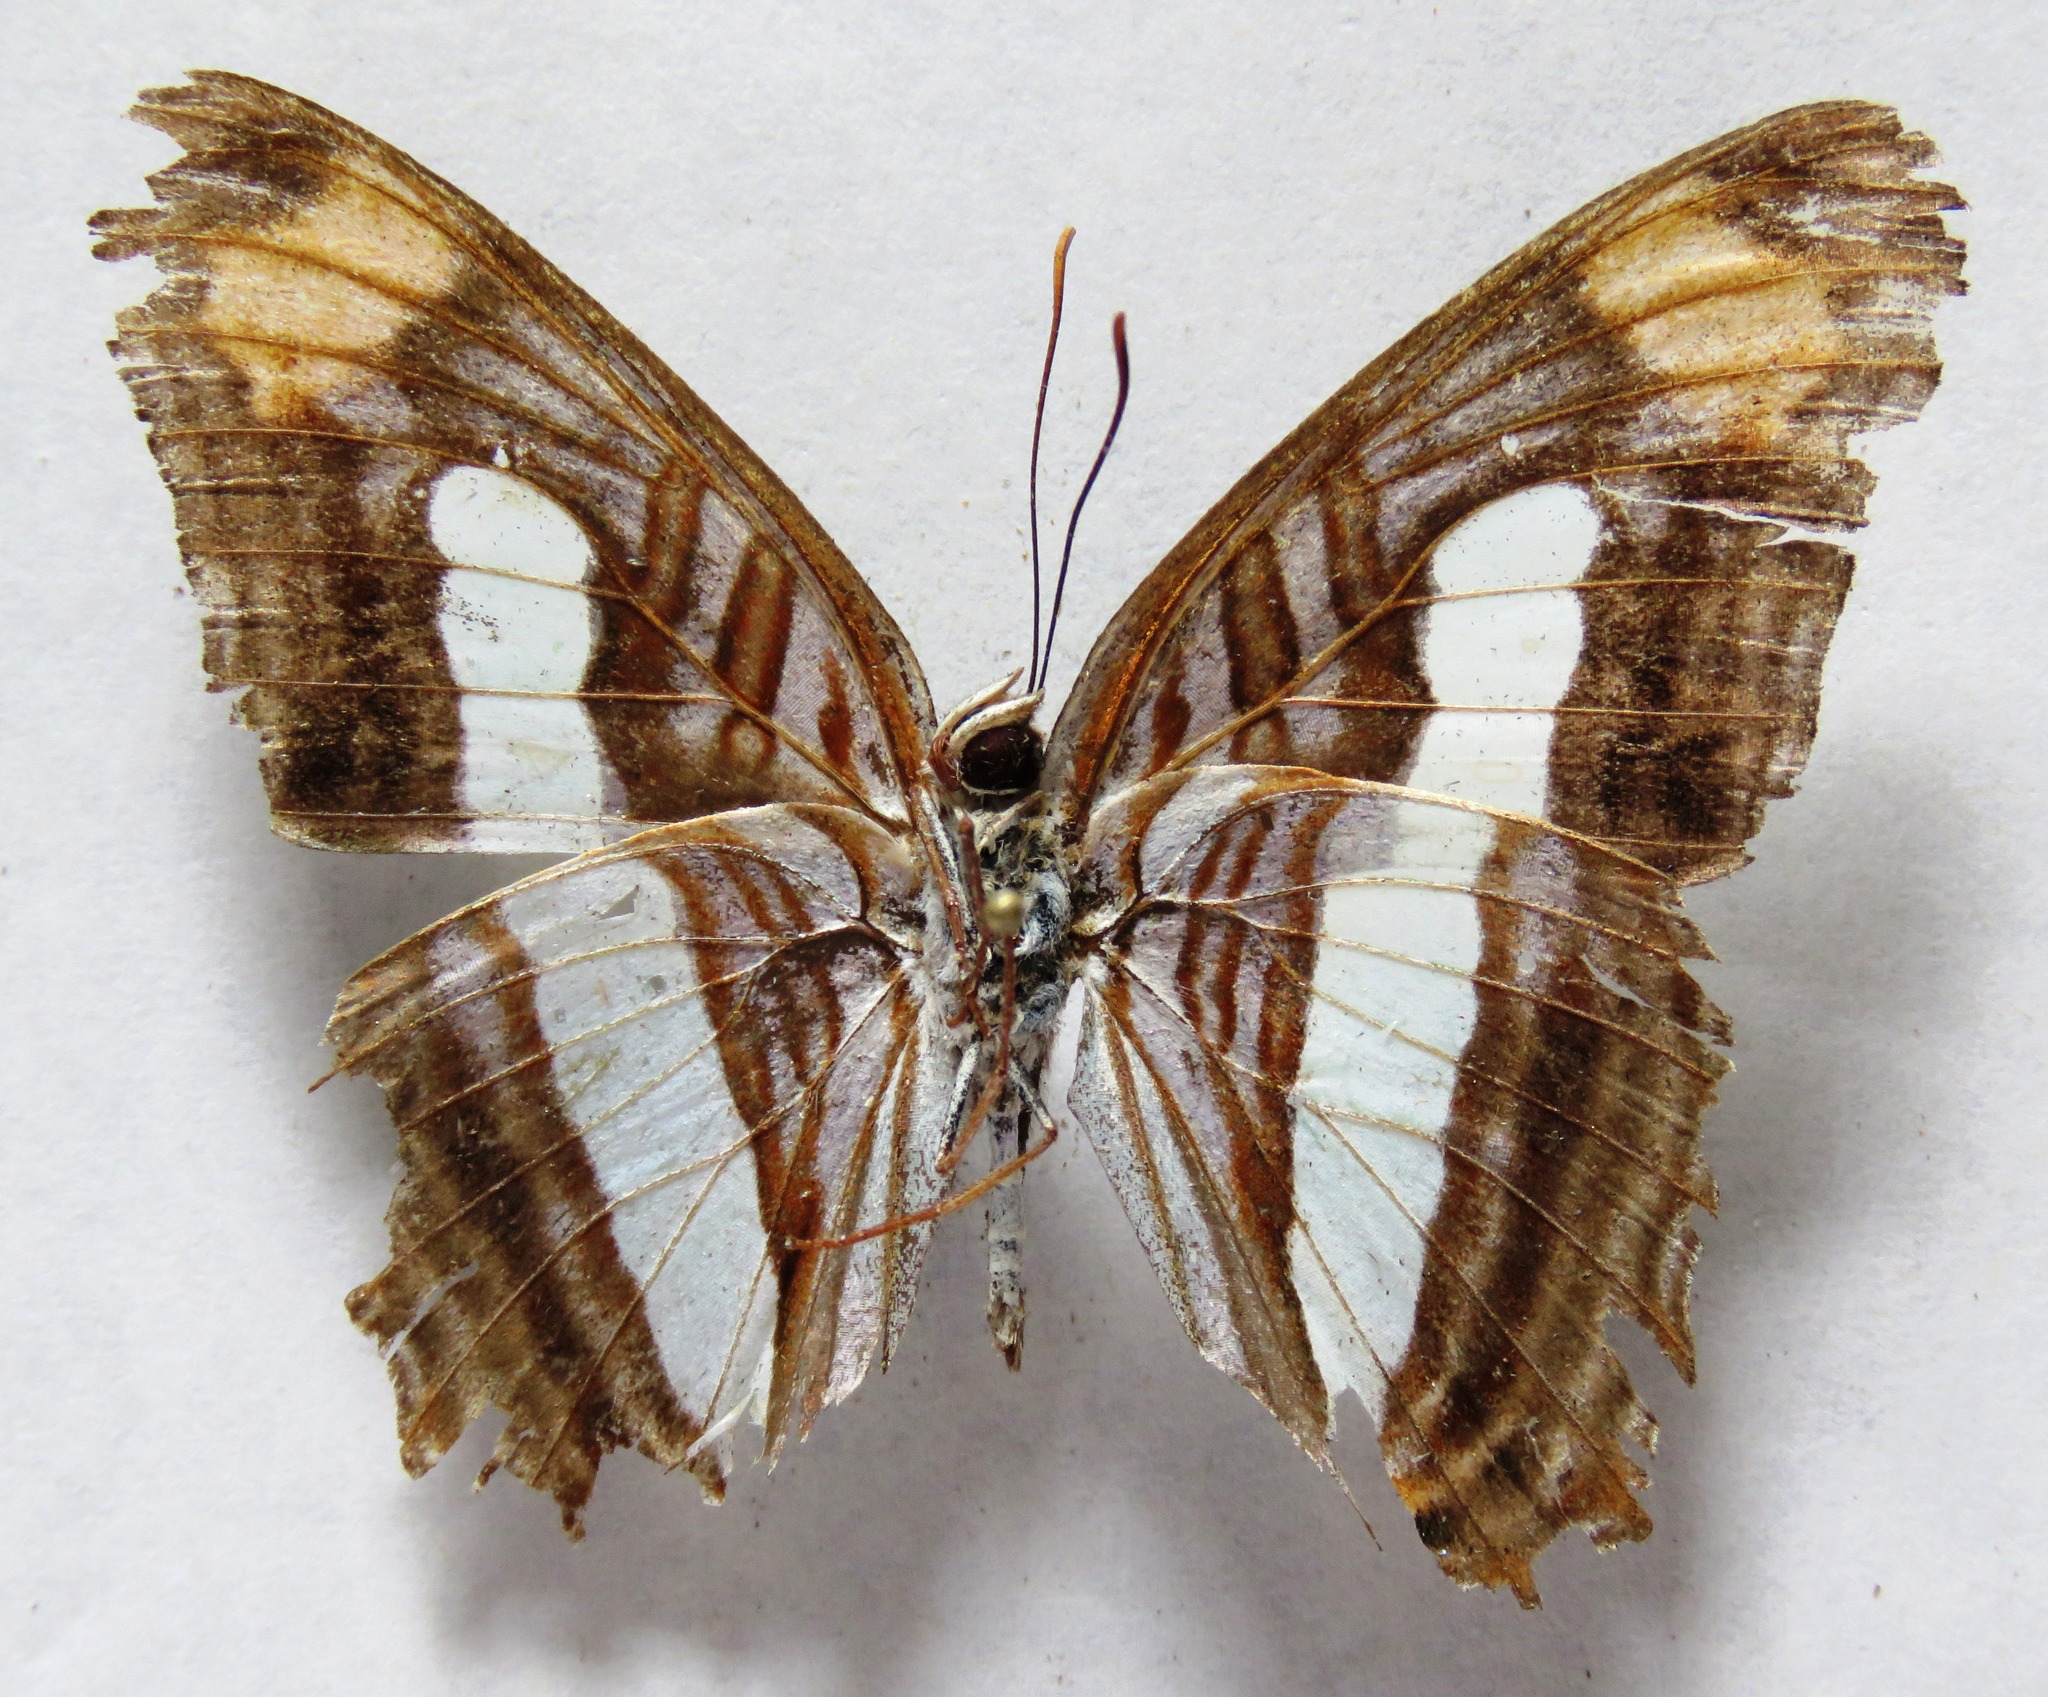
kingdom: Animalia
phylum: Arthropoda
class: Insecta
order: Lepidoptera
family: Nymphalidae
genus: Limenitis
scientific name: Limenitis iphiclus
